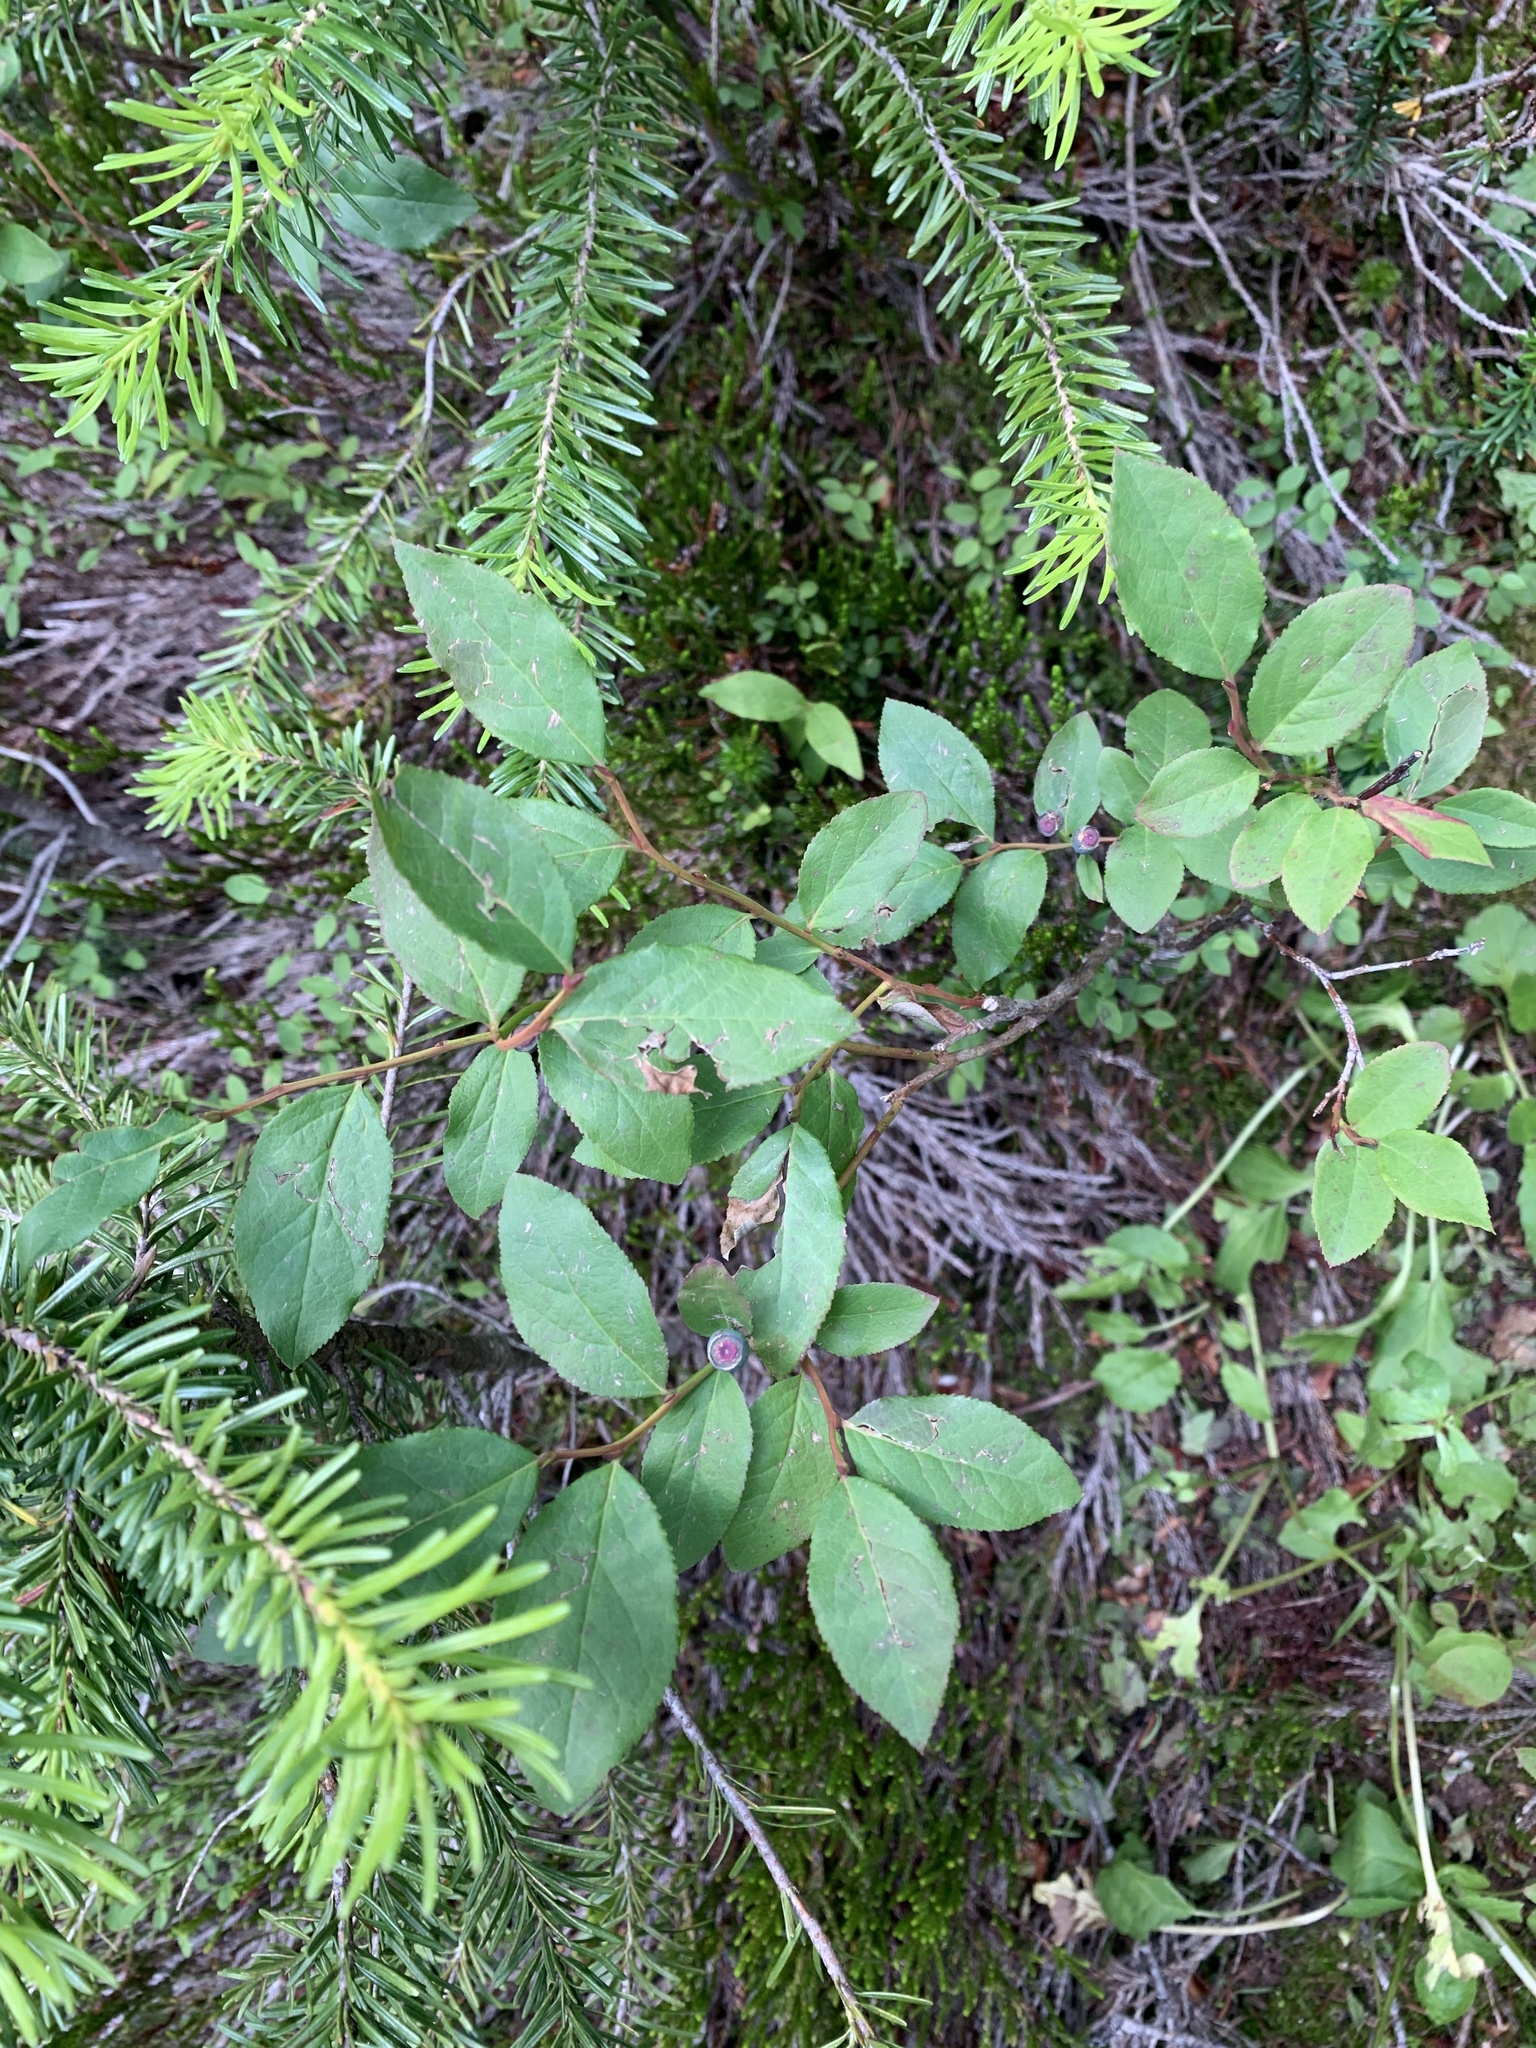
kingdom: Plantae
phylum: Tracheophyta
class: Magnoliopsida
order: Ericales
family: Ericaceae
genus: Vaccinium
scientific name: Vaccinium membranaceum
